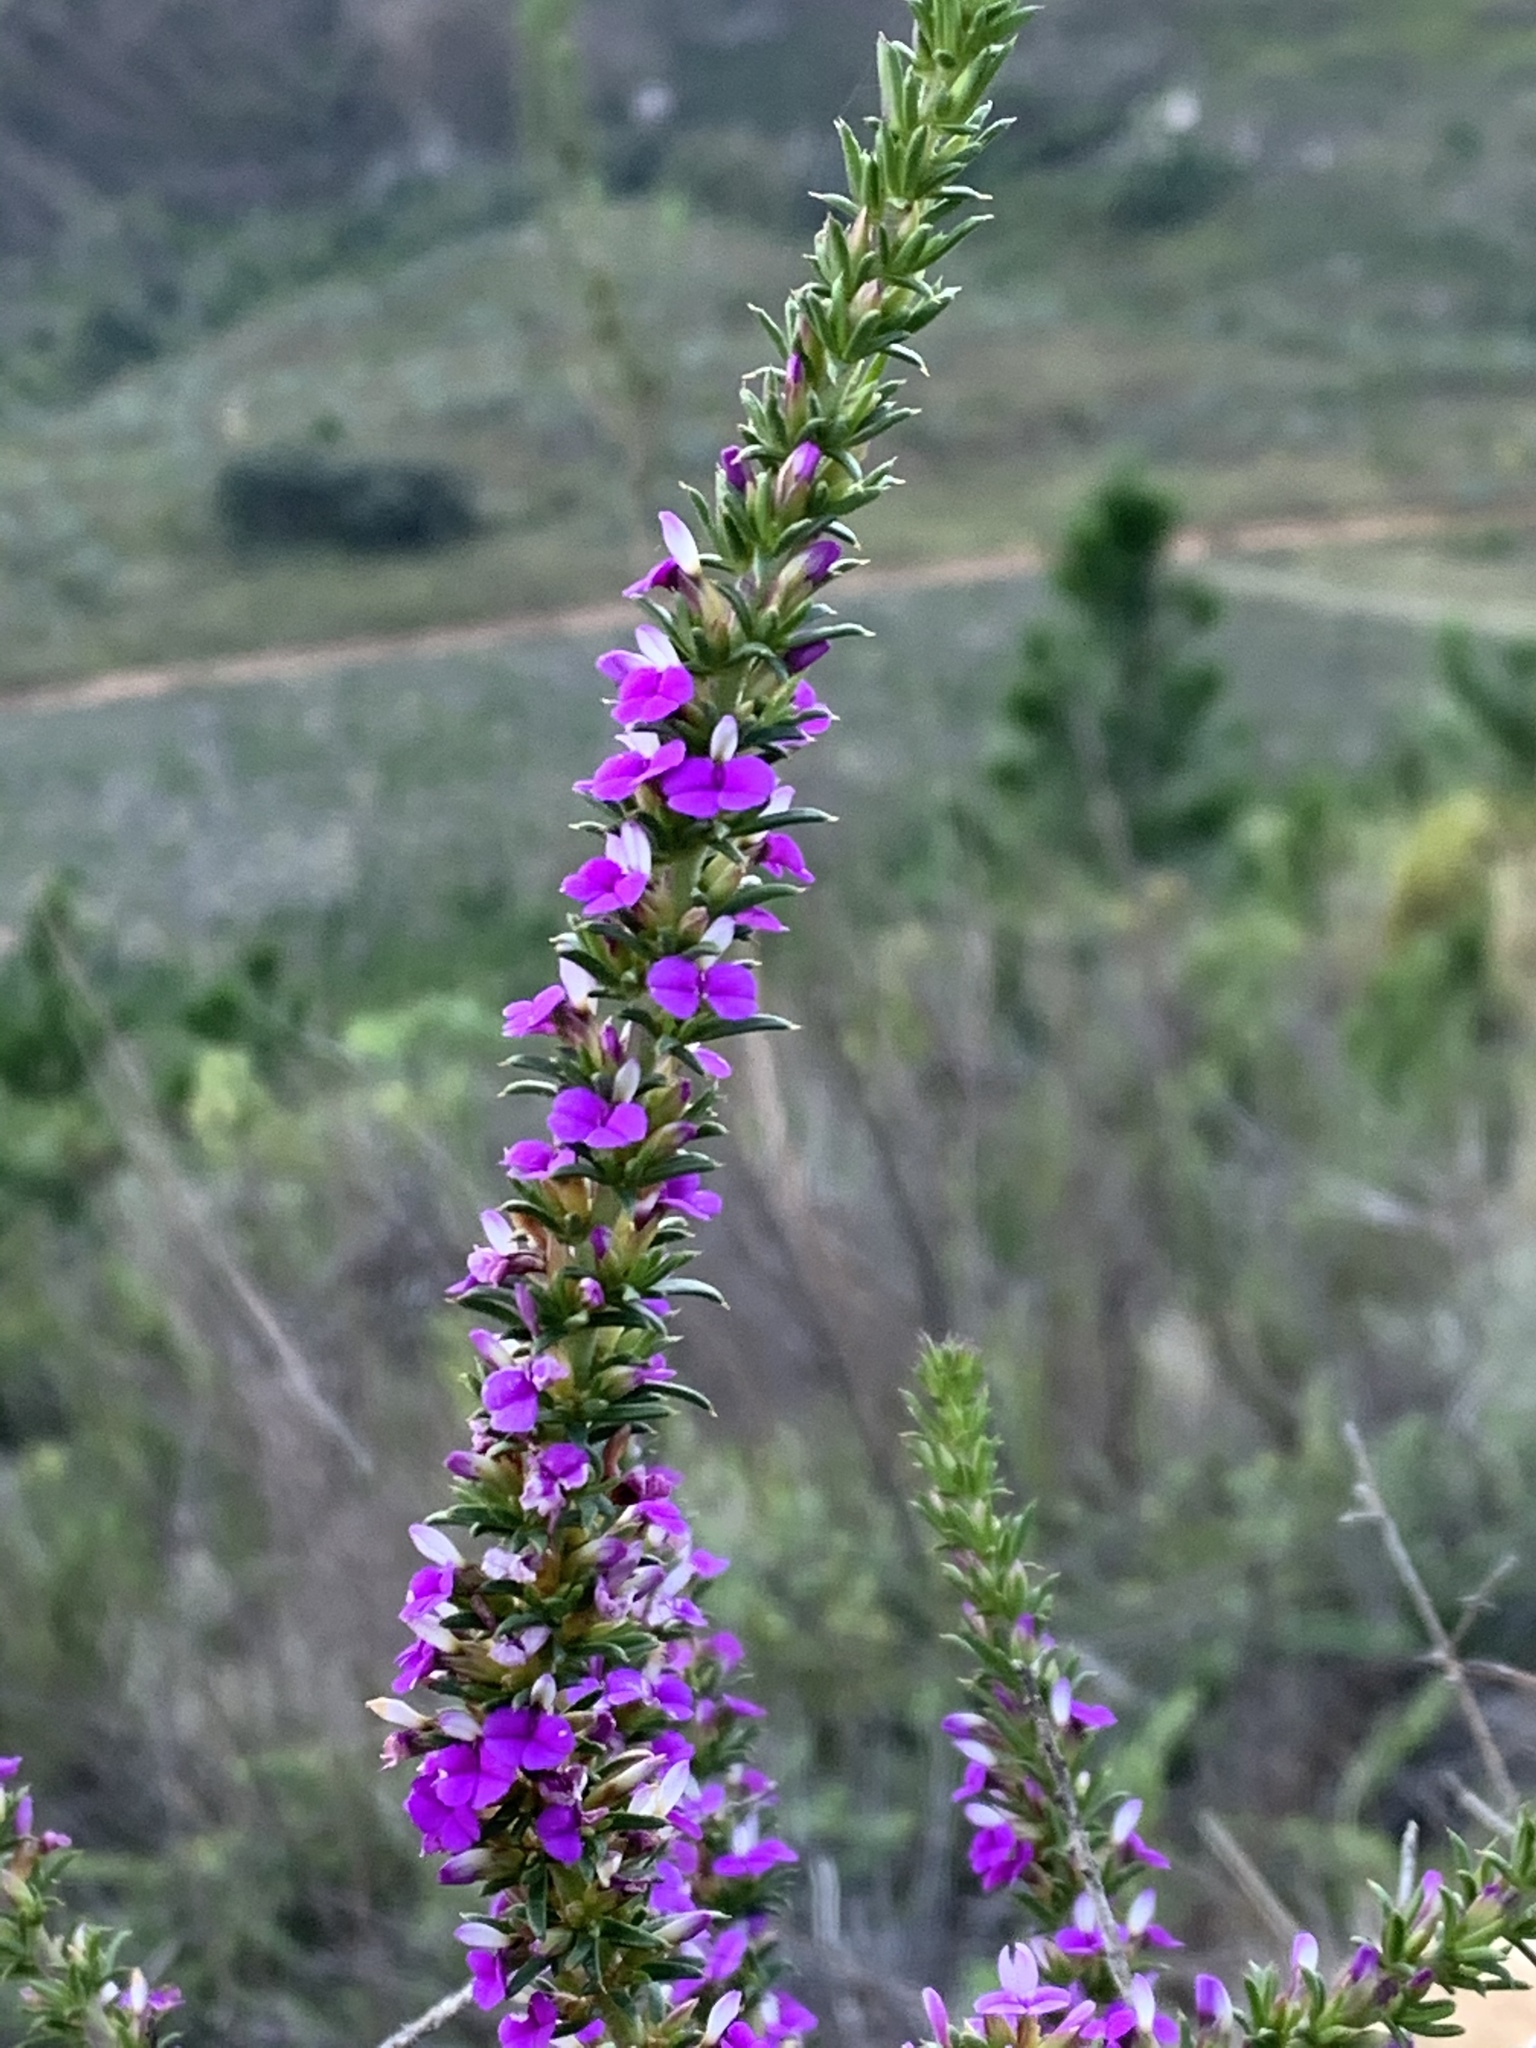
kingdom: Plantae
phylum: Tracheophyta
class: Magnoliopsida
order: Fabales
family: Polygalaceae
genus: Muraltia
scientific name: Muraltia heisteria
